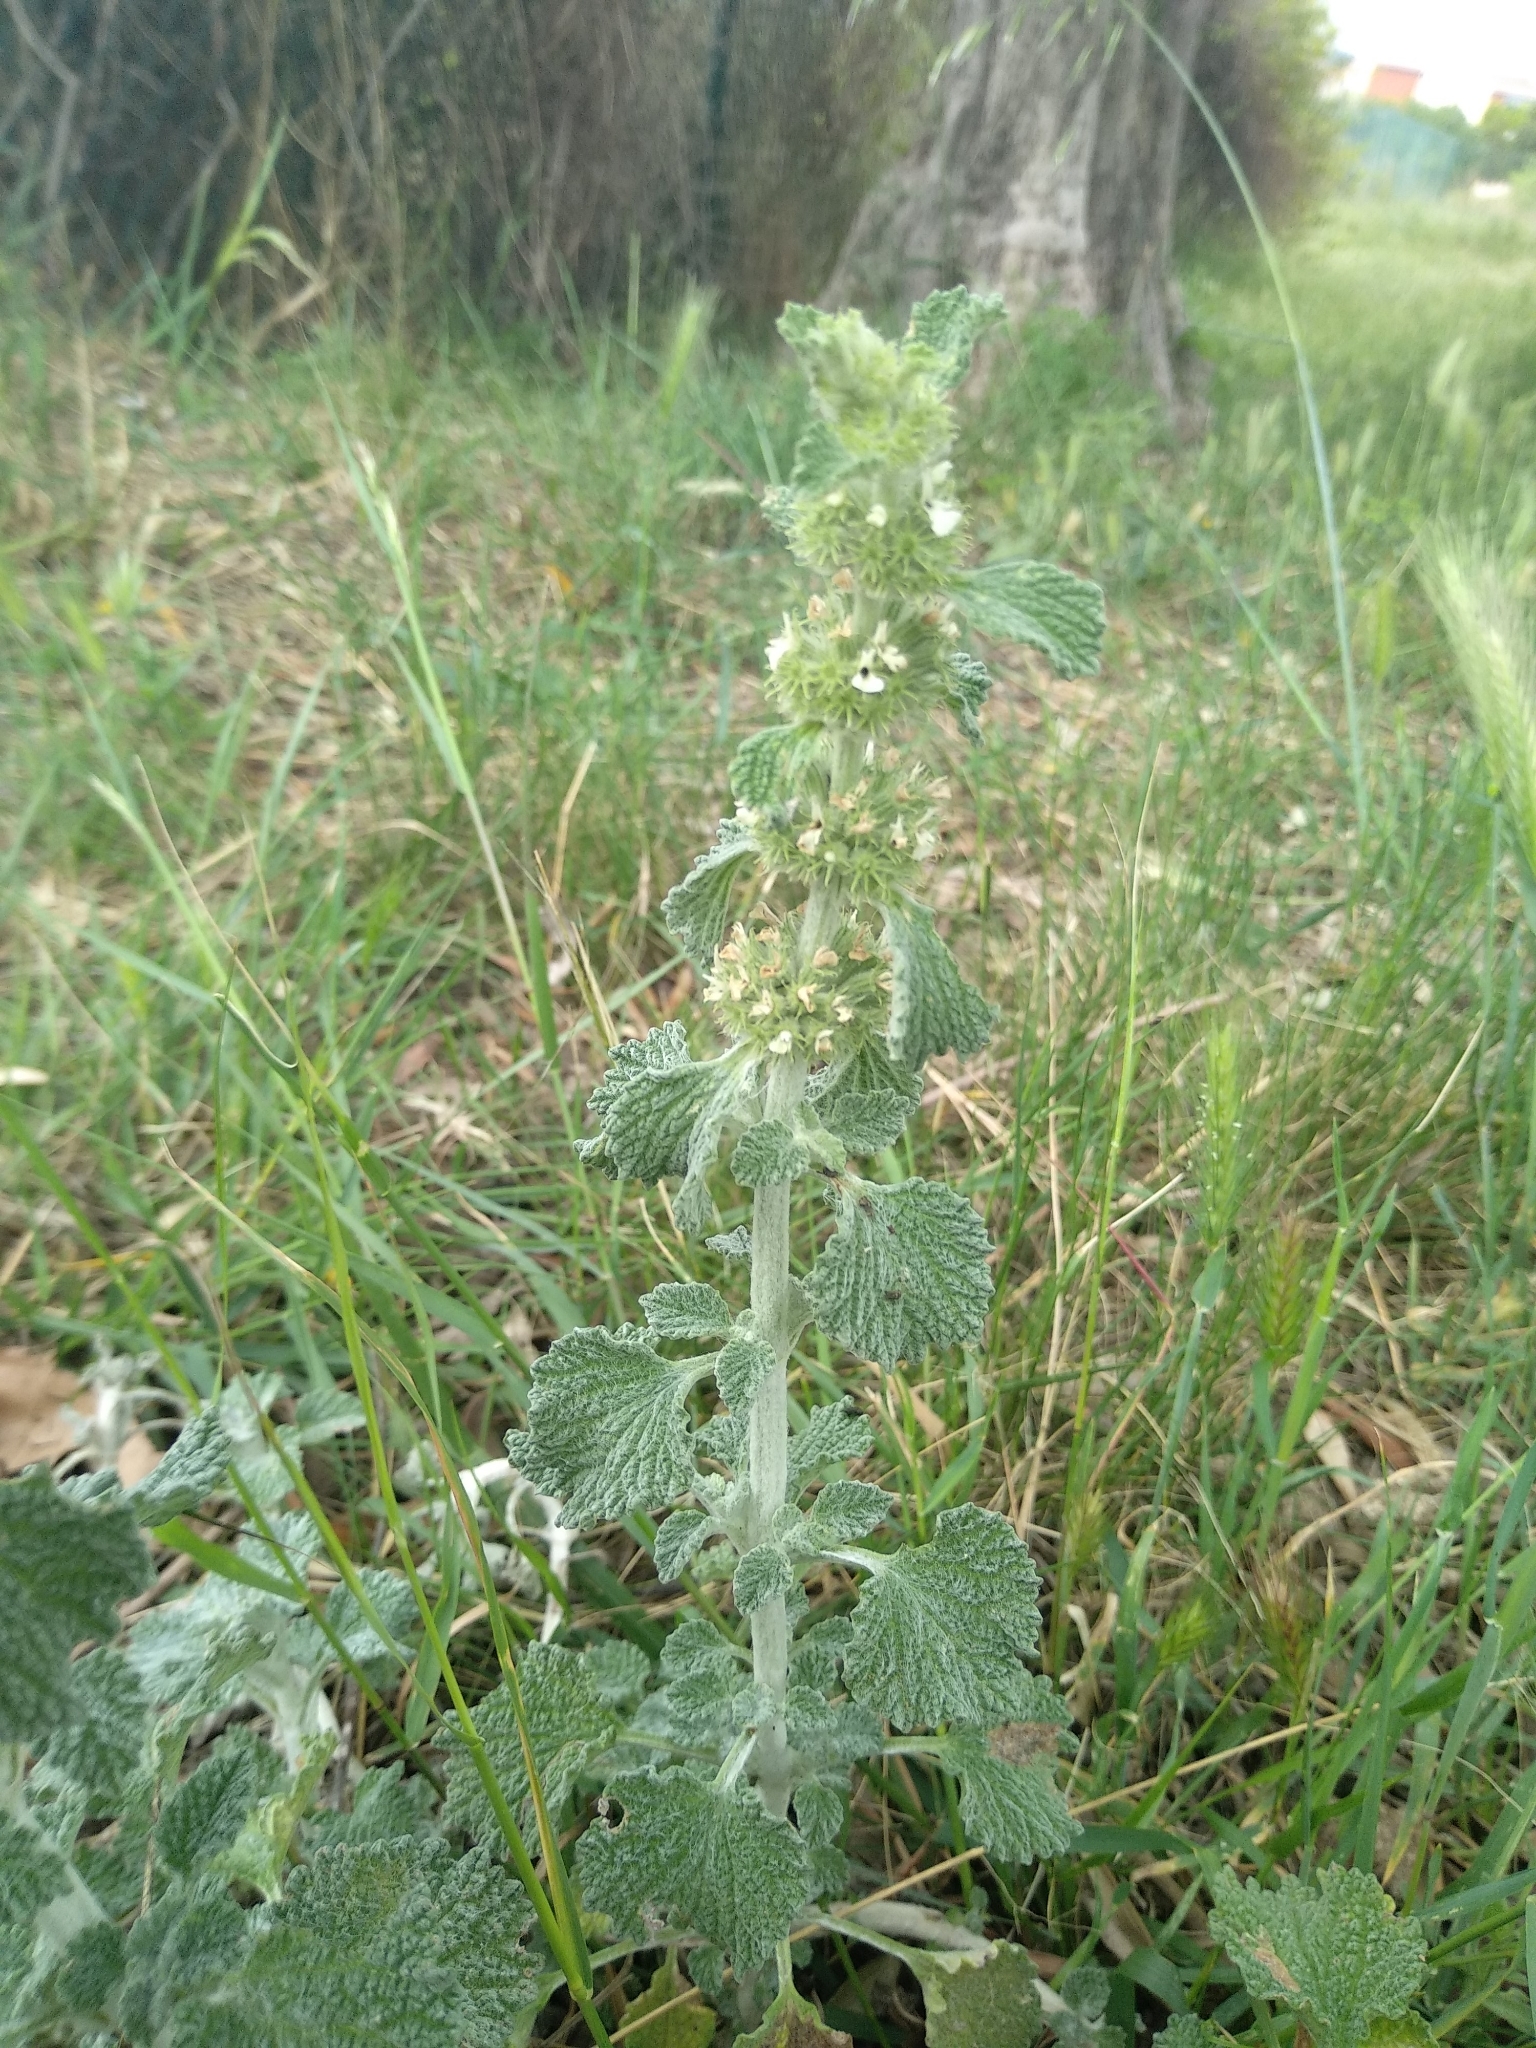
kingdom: Plantae
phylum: Tracheophyta
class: Magnoliopsida
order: Lamiales
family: Lamiaceae
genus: Marrubium
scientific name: Marrubium vulgare
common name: Horehound
